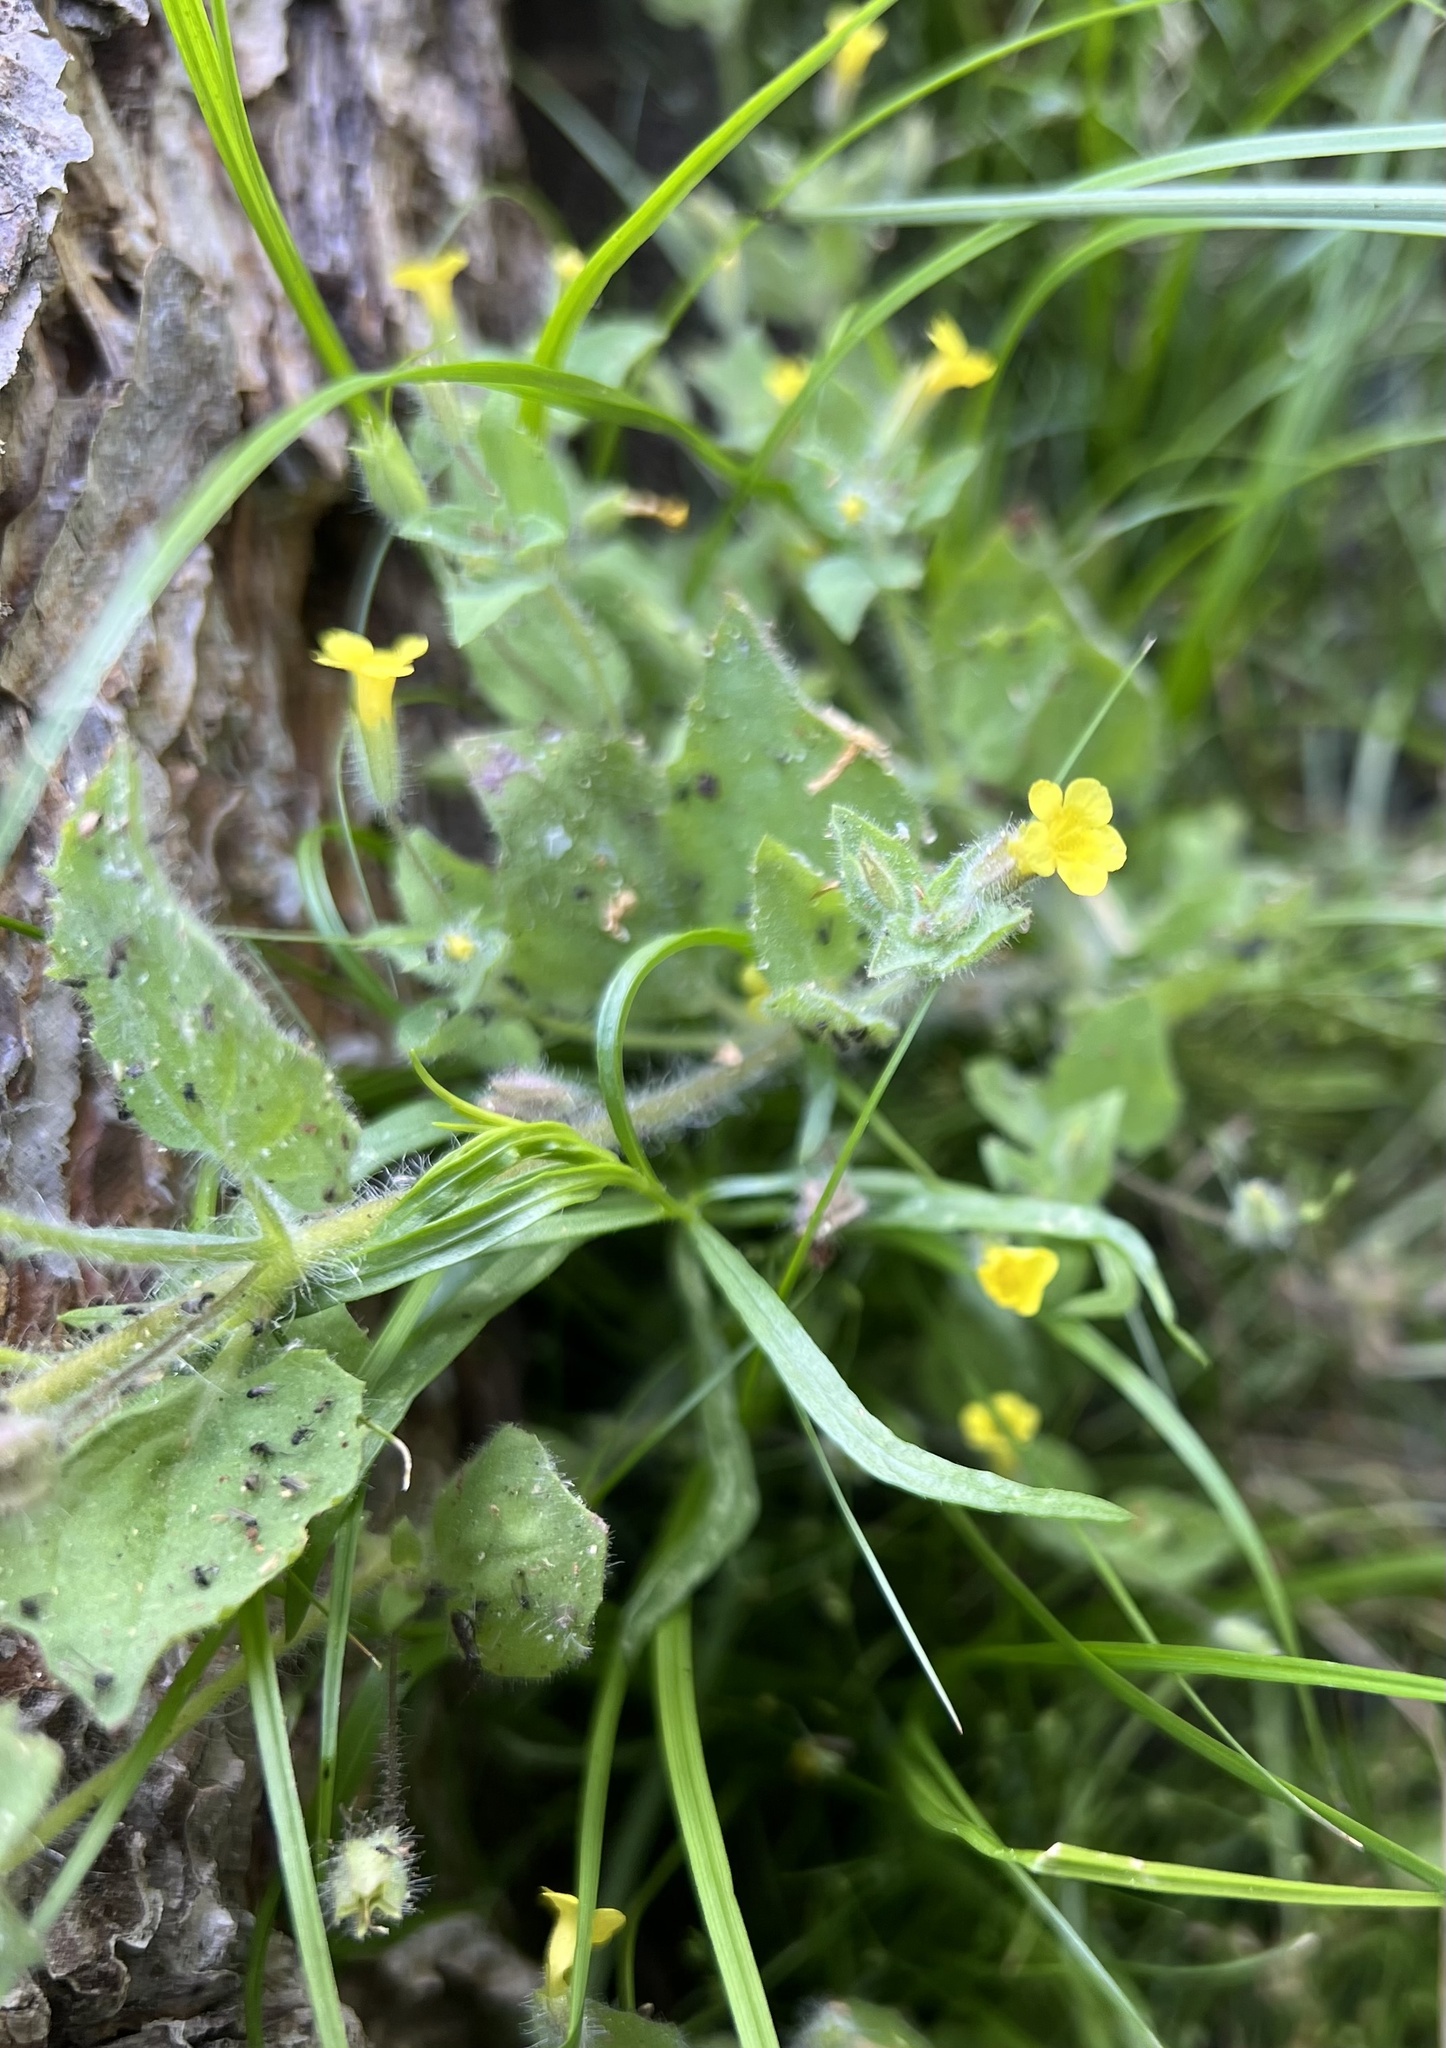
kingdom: Plantae
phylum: Tracheophyta
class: Magnoliopsida
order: Lamiales
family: Phrymaceae
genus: Erythranthe
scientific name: Erythranthe floribunda
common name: Floriferous monkeyflower
